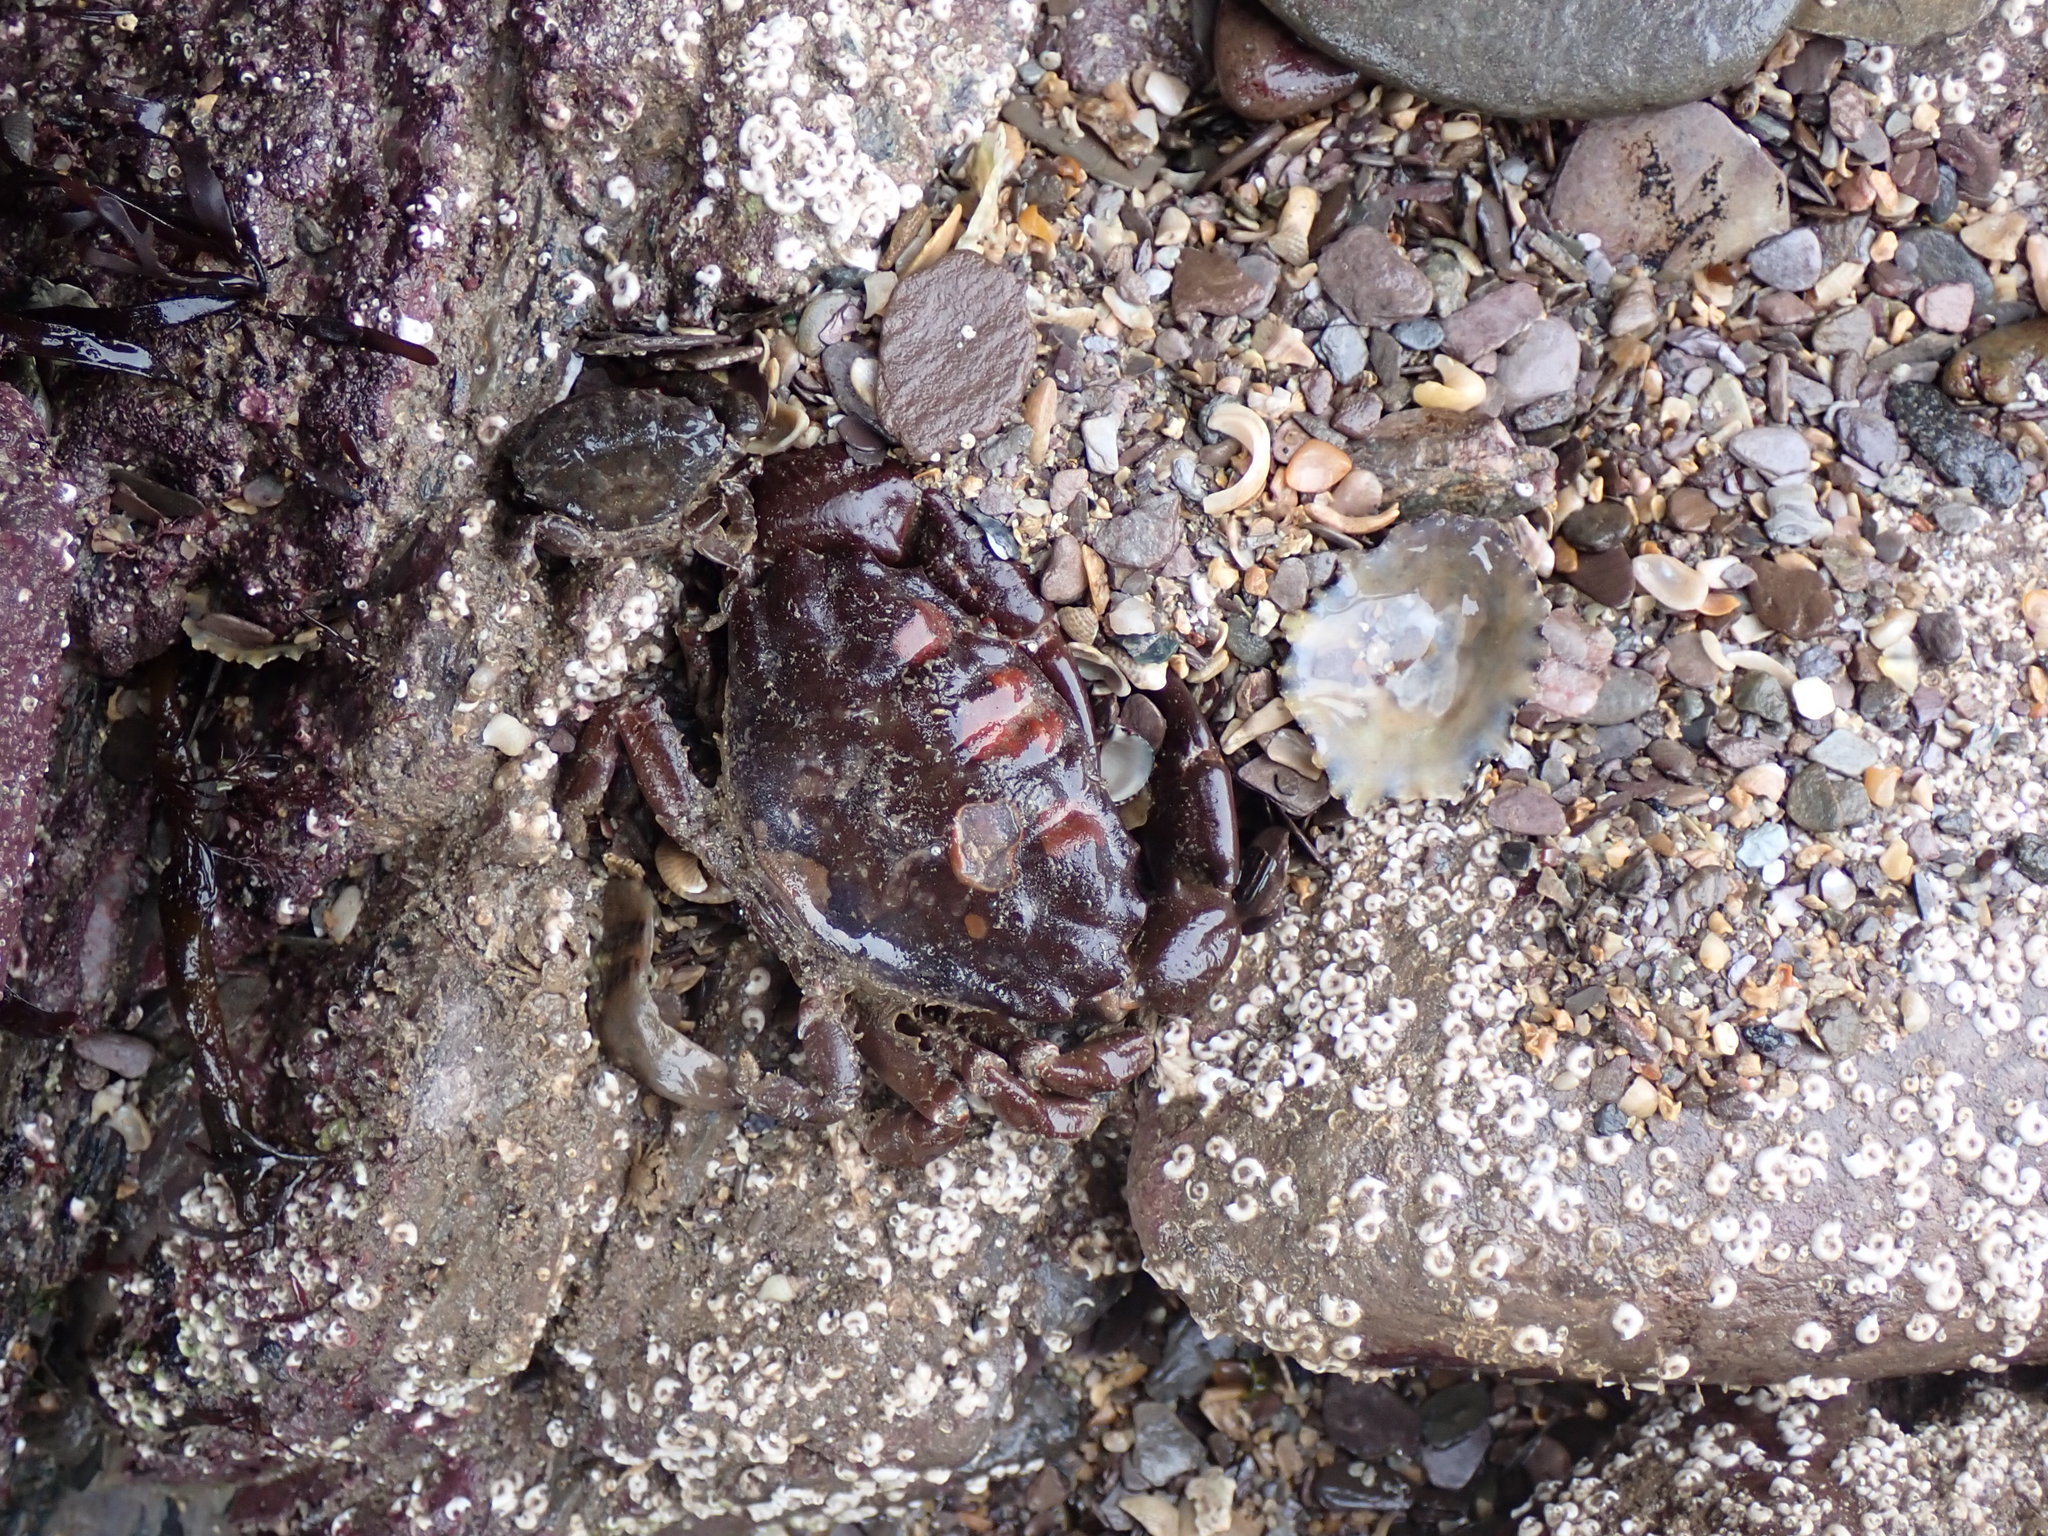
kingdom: Animalia
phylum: Arthropoda
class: Malacostraca
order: Decapoda
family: Xanthidae
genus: Xantho
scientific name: Xantho hydrophilus
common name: Montagu's crab
